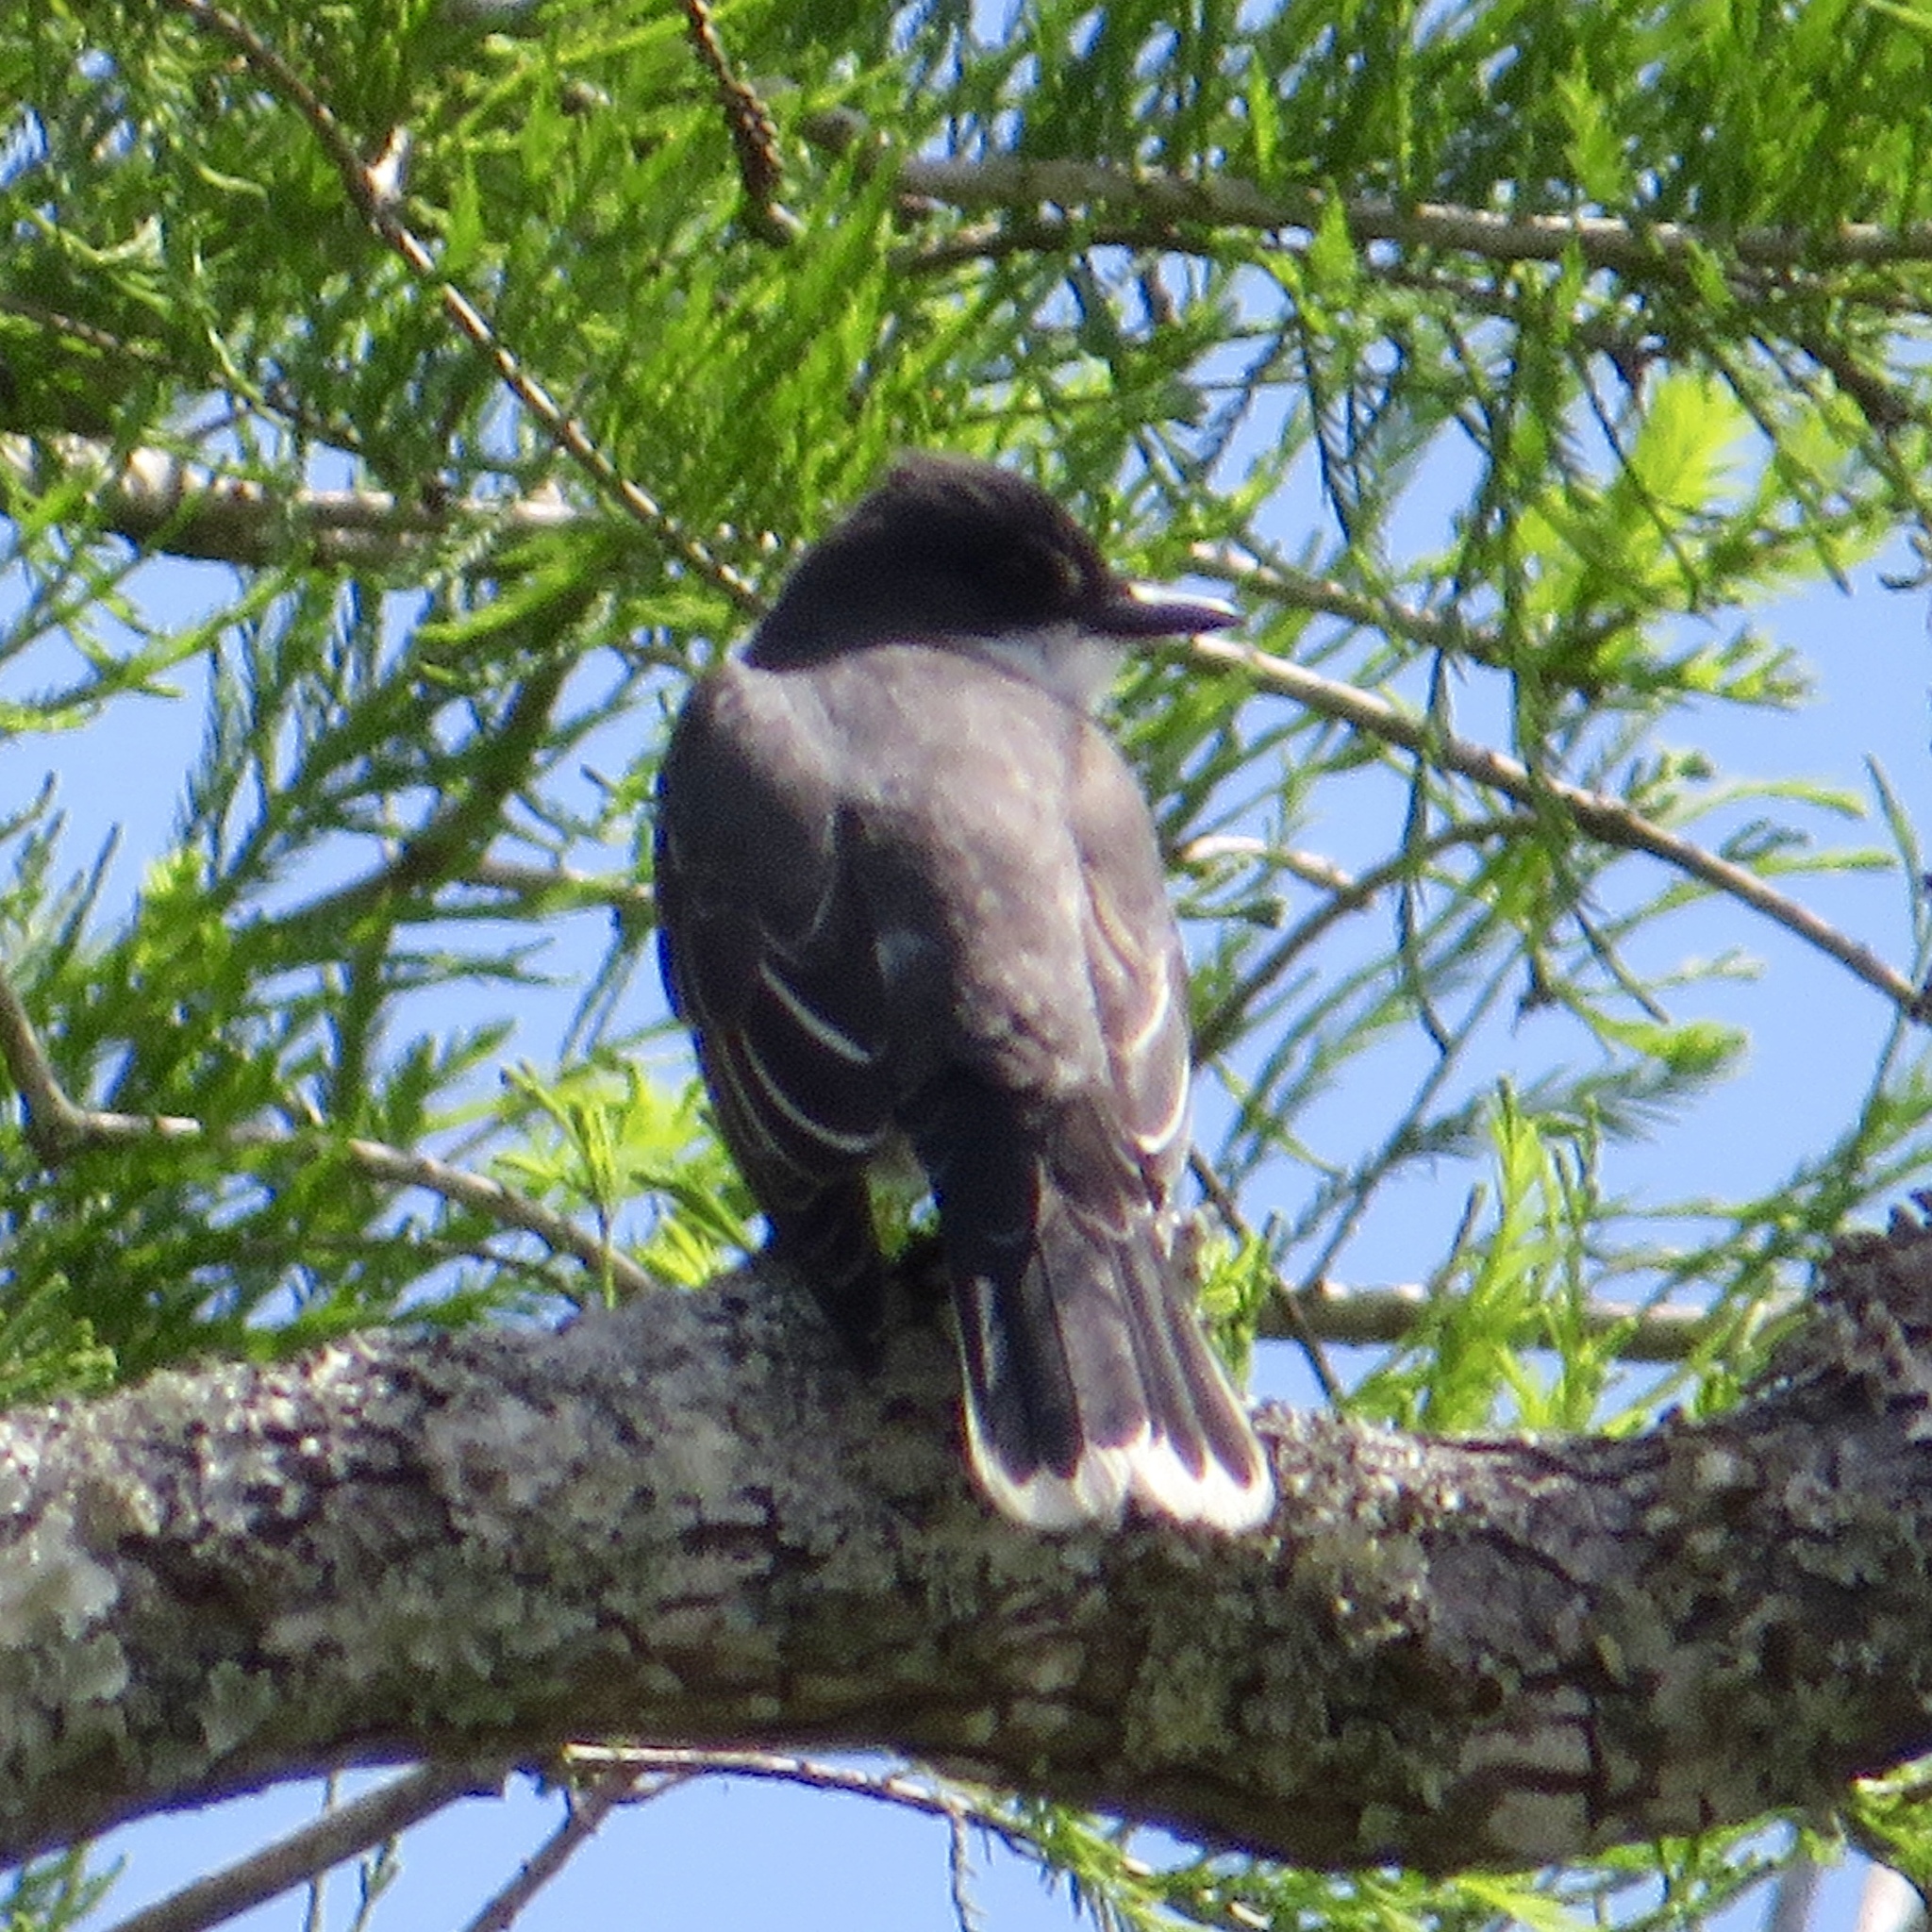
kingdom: Animalia
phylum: Chordata
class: Aves
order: Passeriformes
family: Tyrannidae
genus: Tyrannus
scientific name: Tyrannus tyrannus
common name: Eastern kingbird
